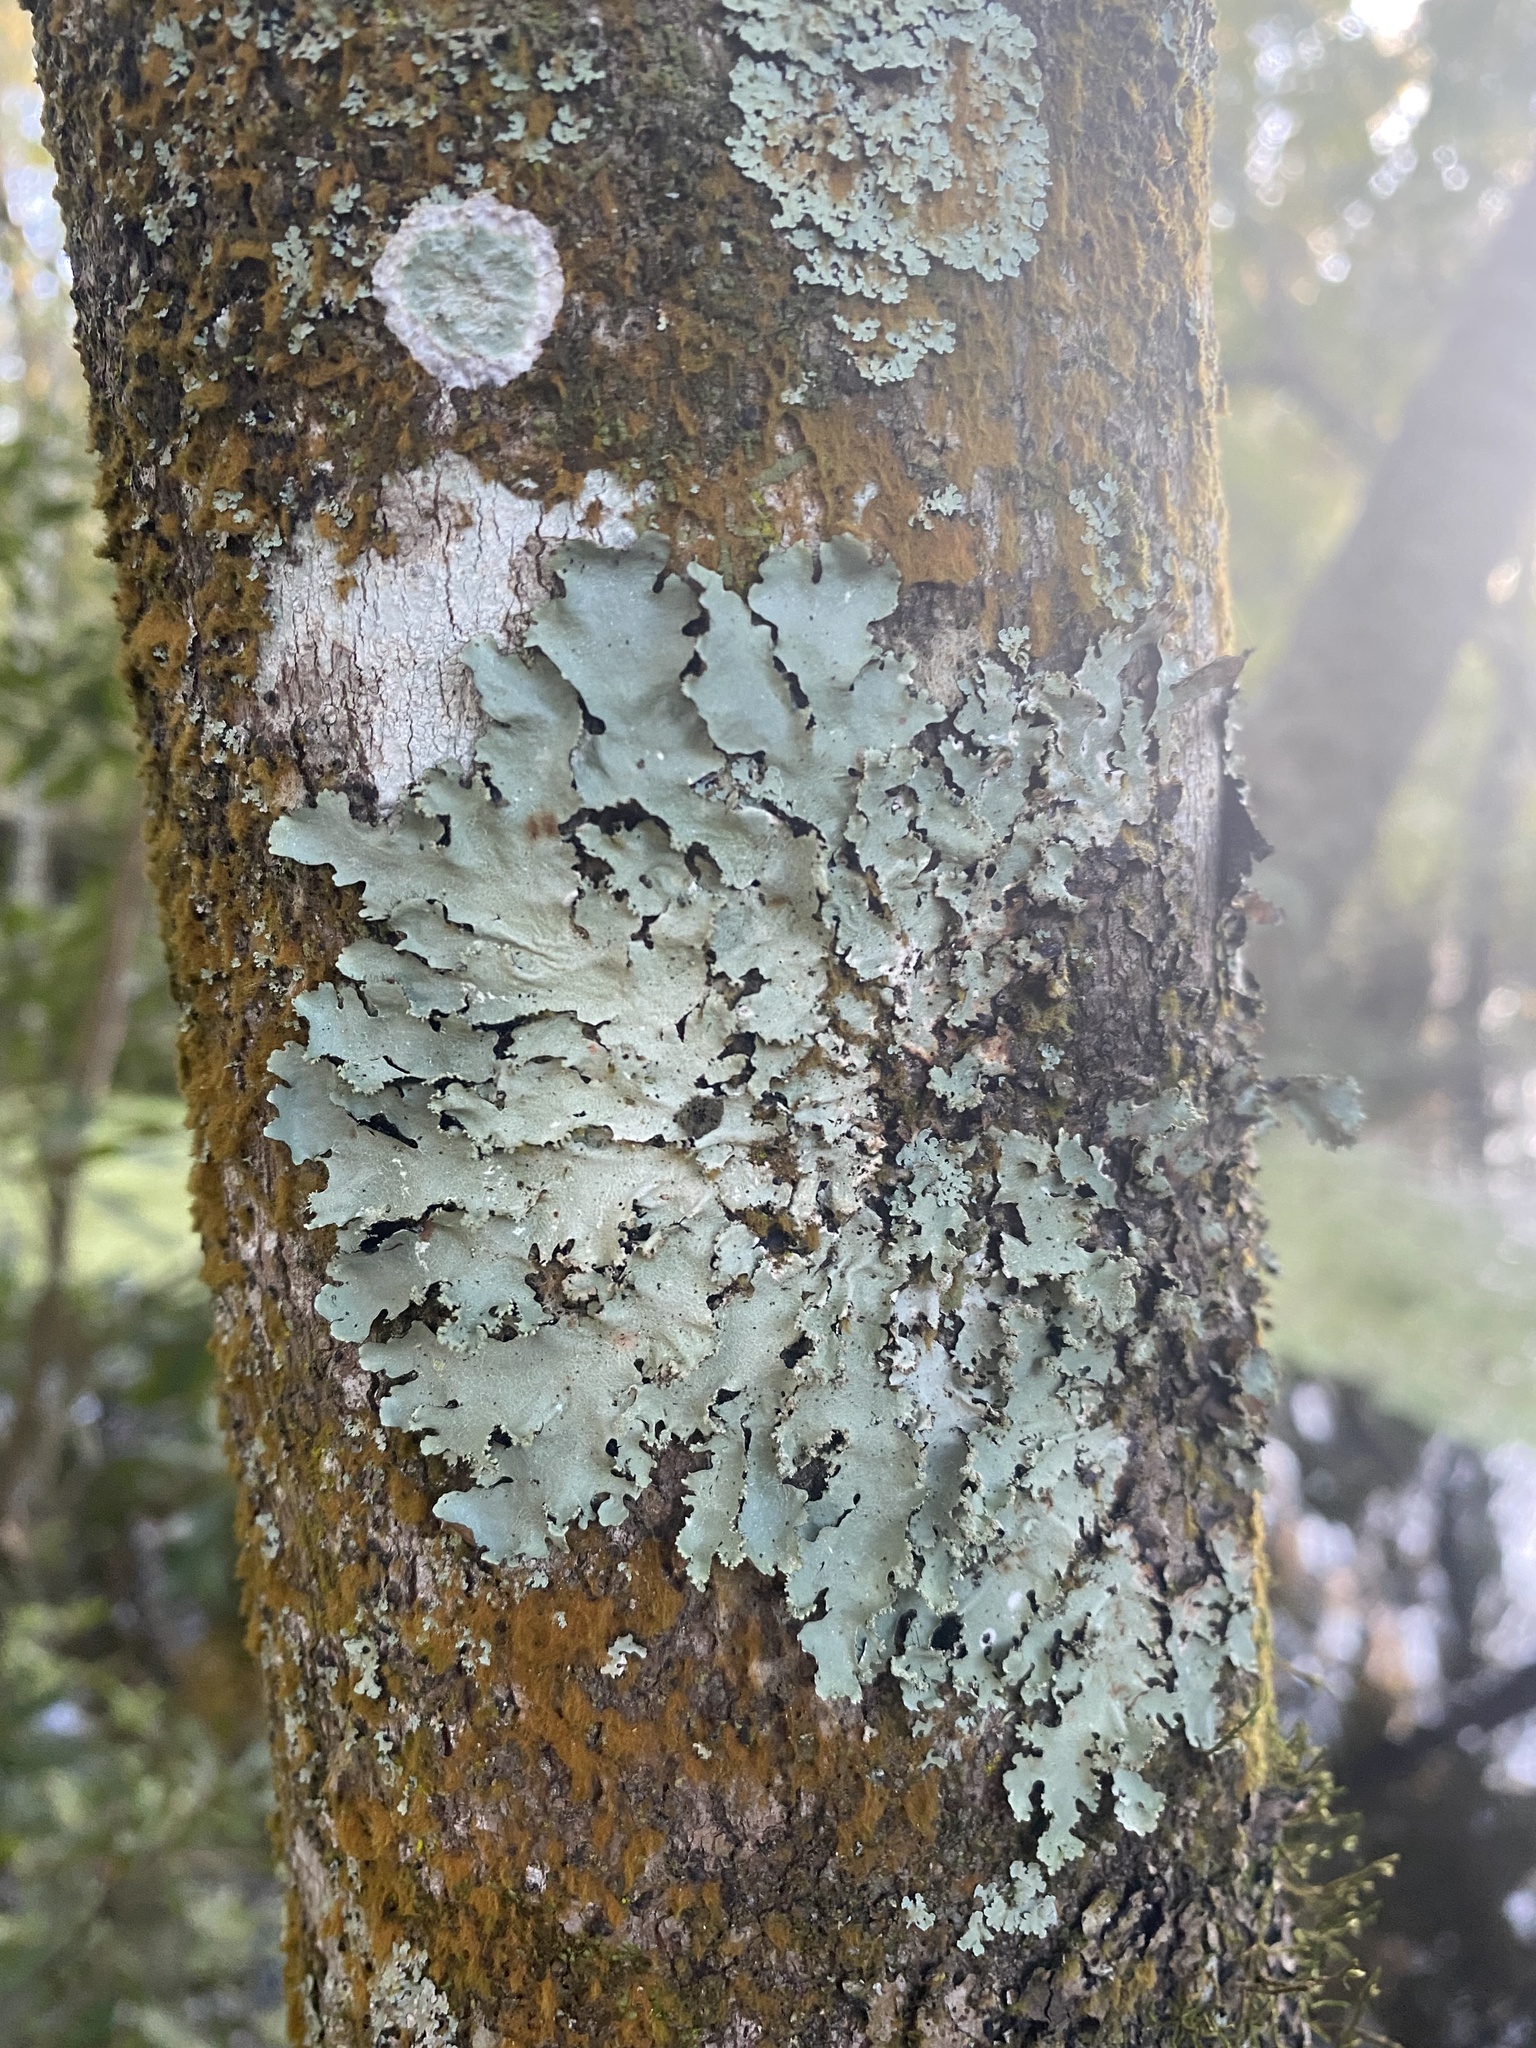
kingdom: Fungi
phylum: Ascomycota
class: Lecanoromycetes
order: Lecanorales
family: Parmeliaceae
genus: Rimelia
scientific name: Rimelia subisidiosa
